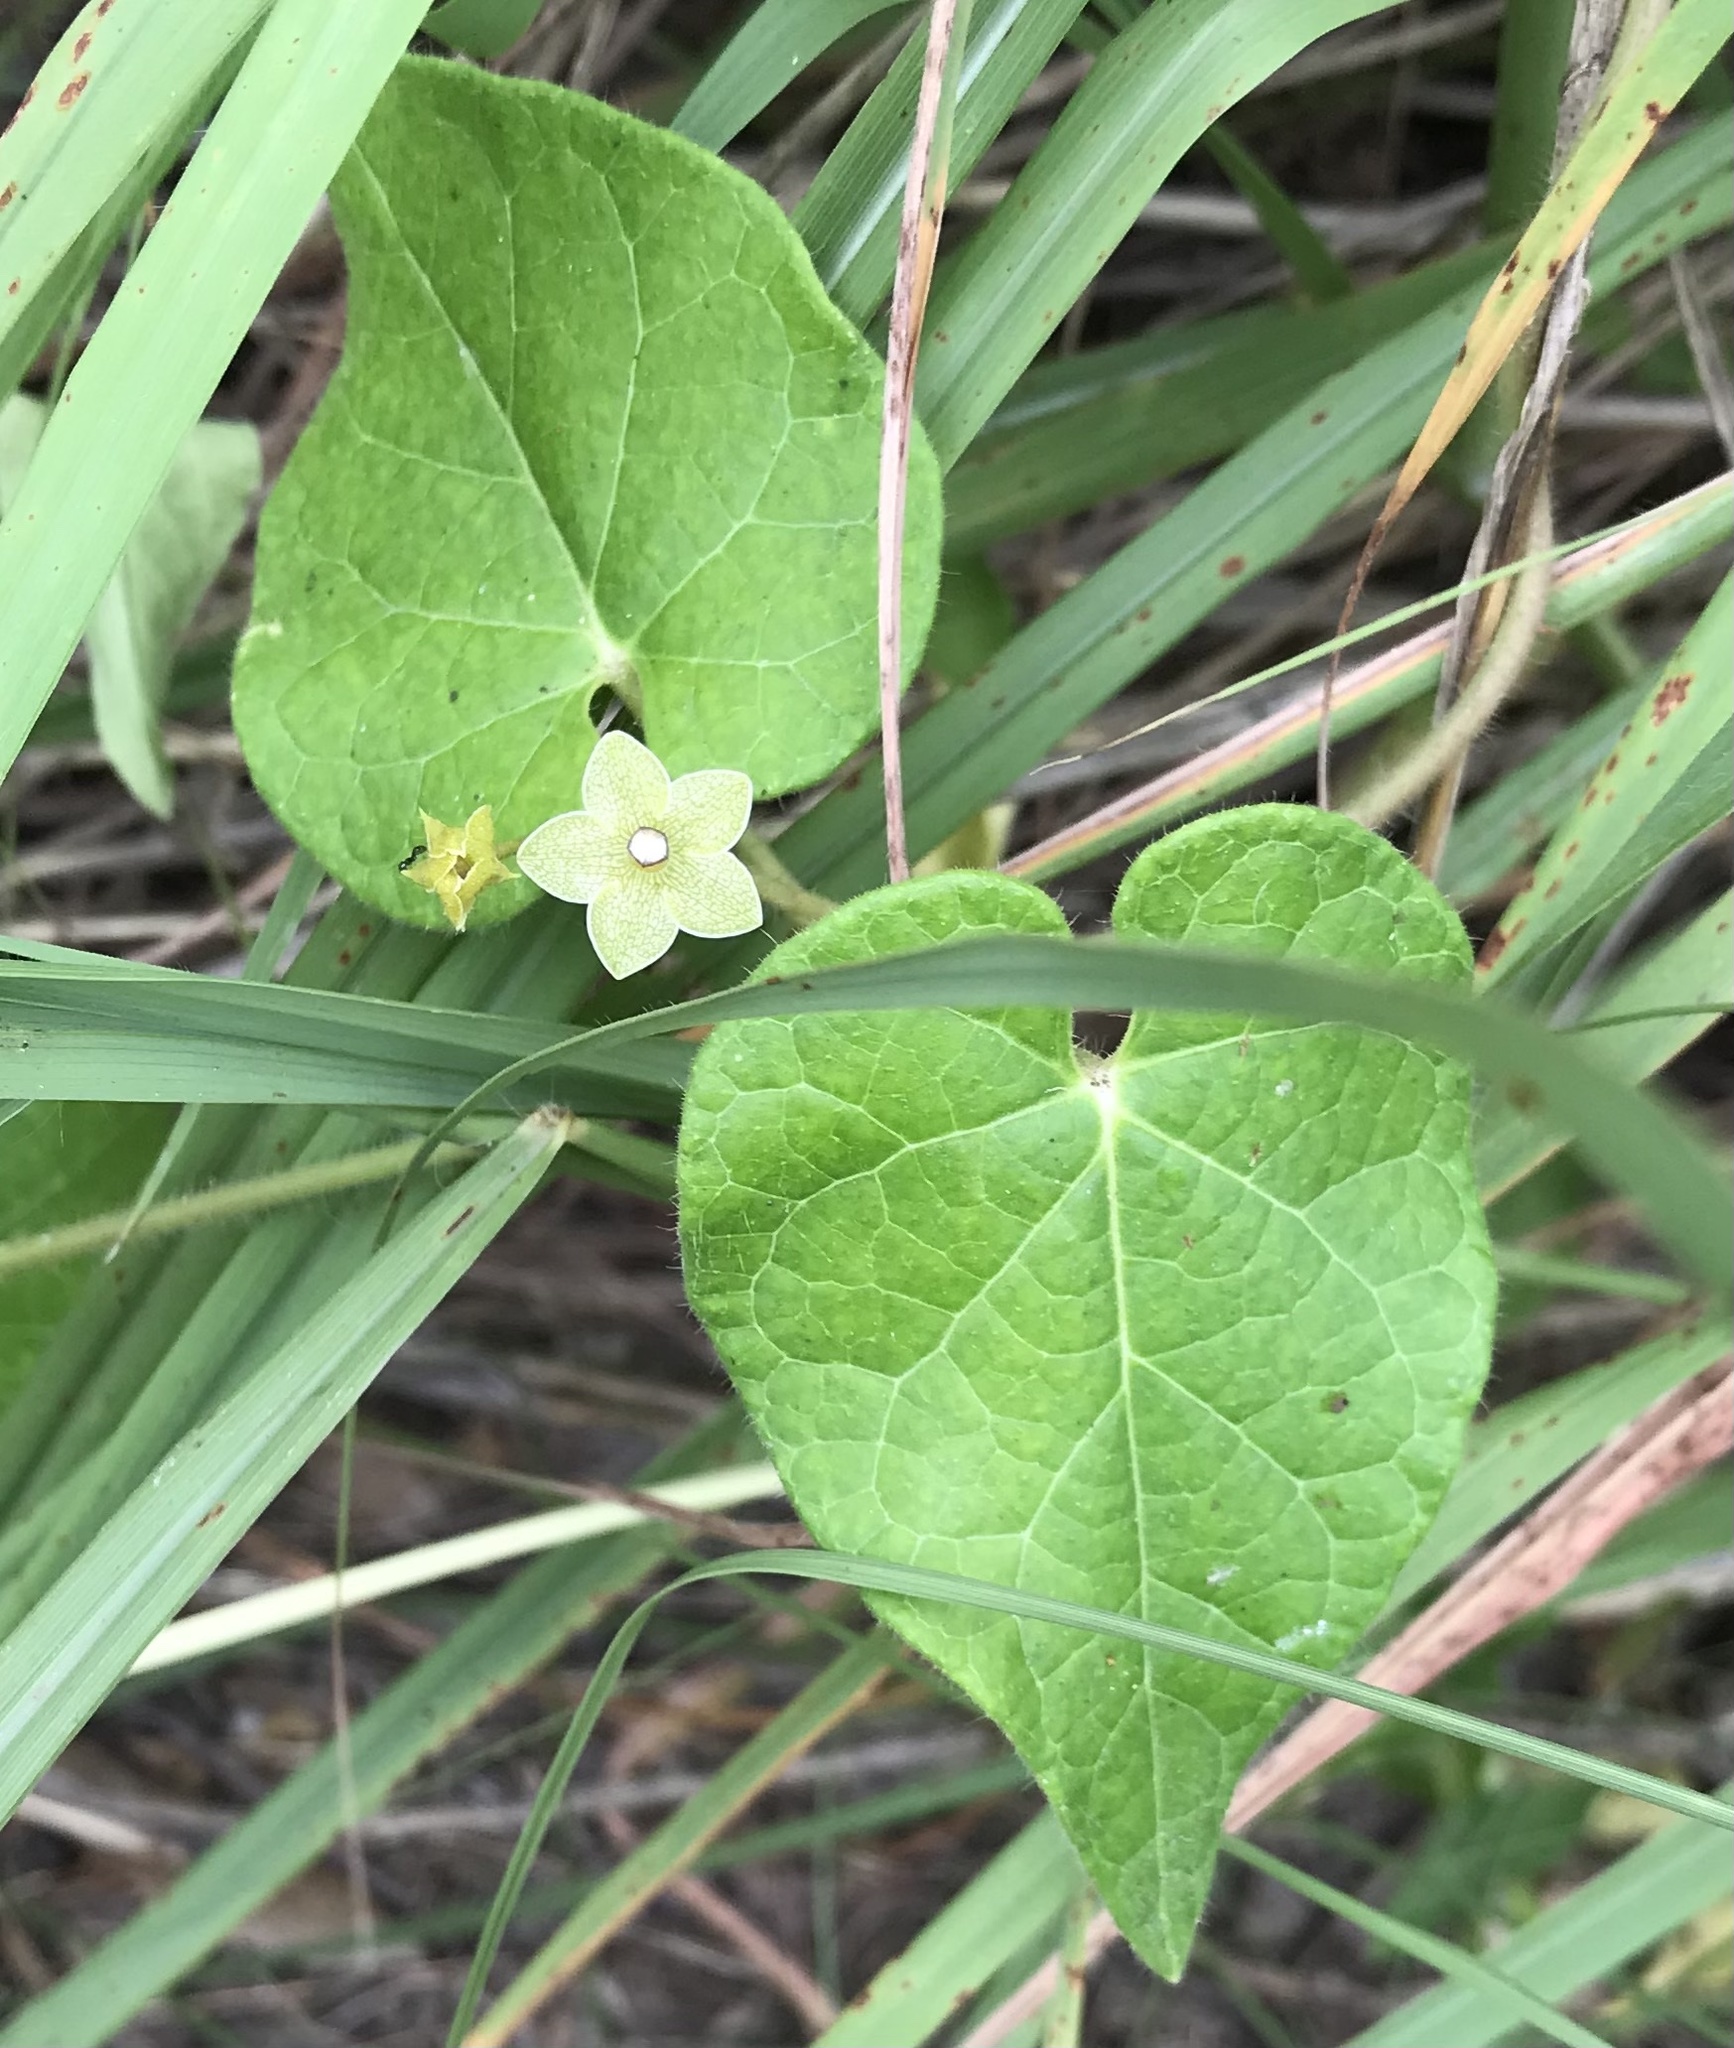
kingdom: Plantae
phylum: Tracheophyta
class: Magnoliopsida
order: Gentianales
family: Apocynaceae
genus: Dictyanthus
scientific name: Dictyanthus reticulatus
